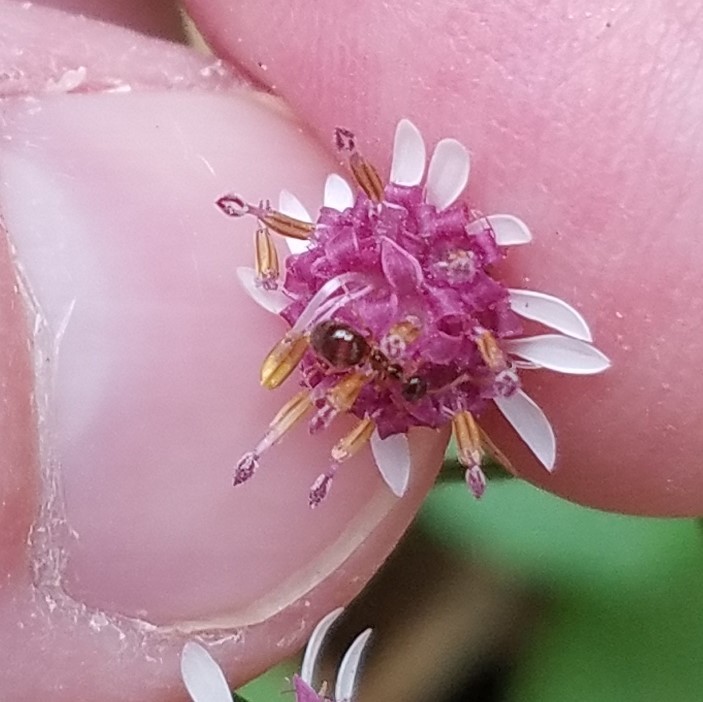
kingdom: Animalia
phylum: Arthropoda
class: Insecta
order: Hymenoptera
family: Formicidae
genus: Prenolepis
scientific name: Prenolepis imparis
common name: Small honey ant
